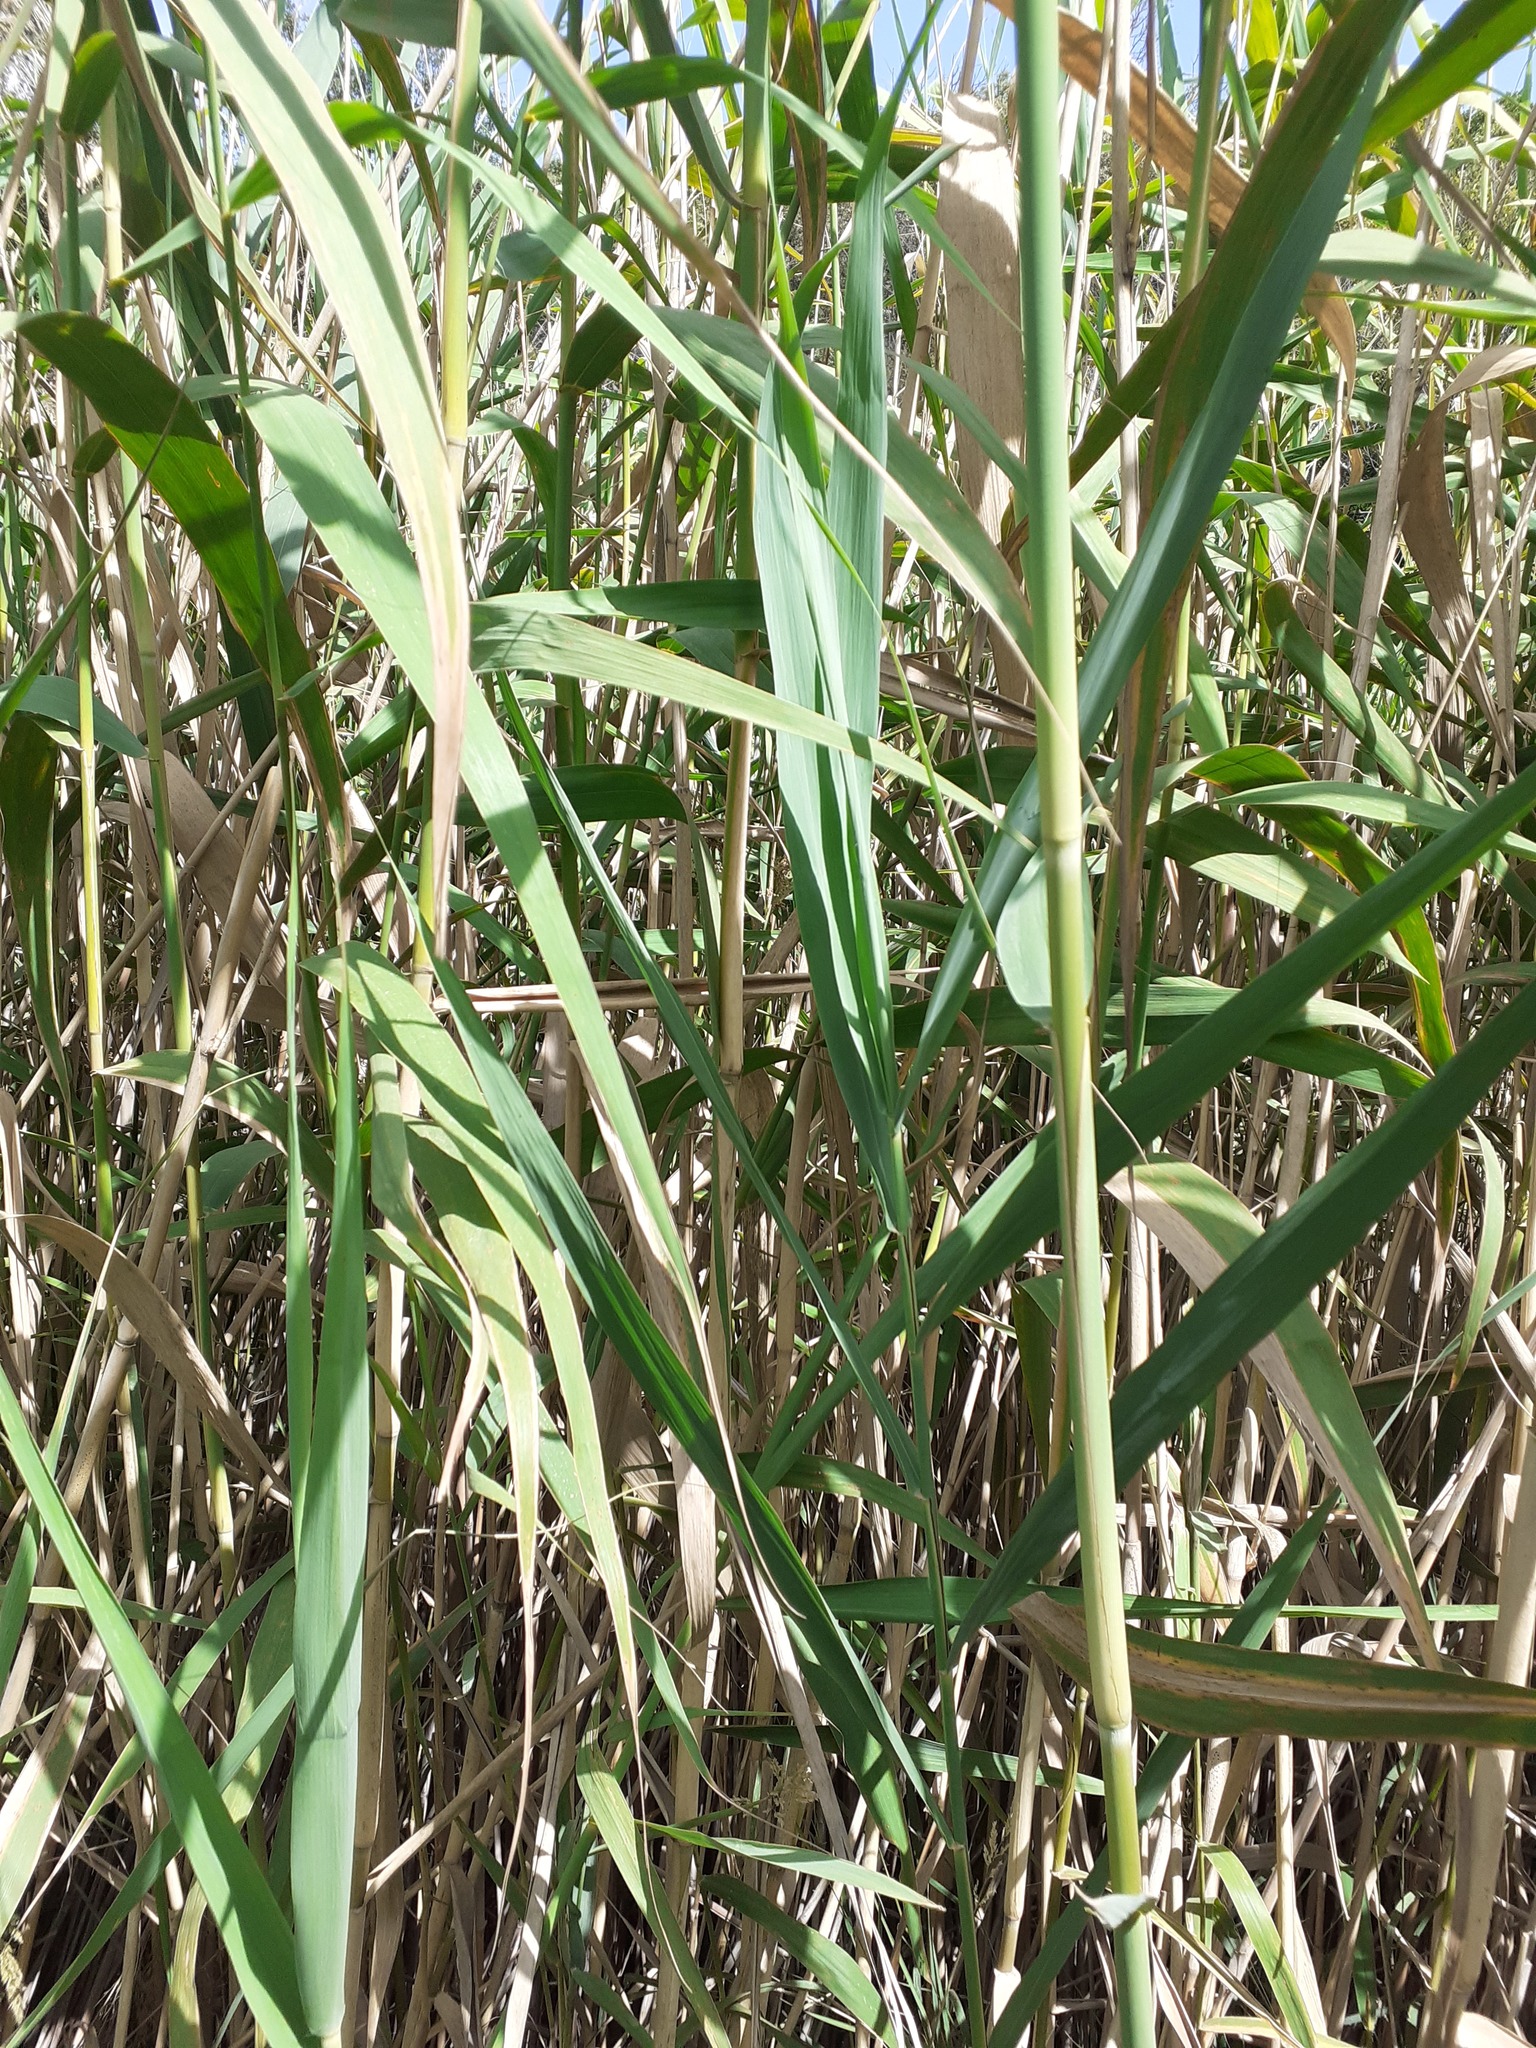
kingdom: Plantae
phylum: Tracheophyta
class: Liliopsida
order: Poales
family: Poaceae
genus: Arundo
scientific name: Arundo donax
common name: Giant reed
